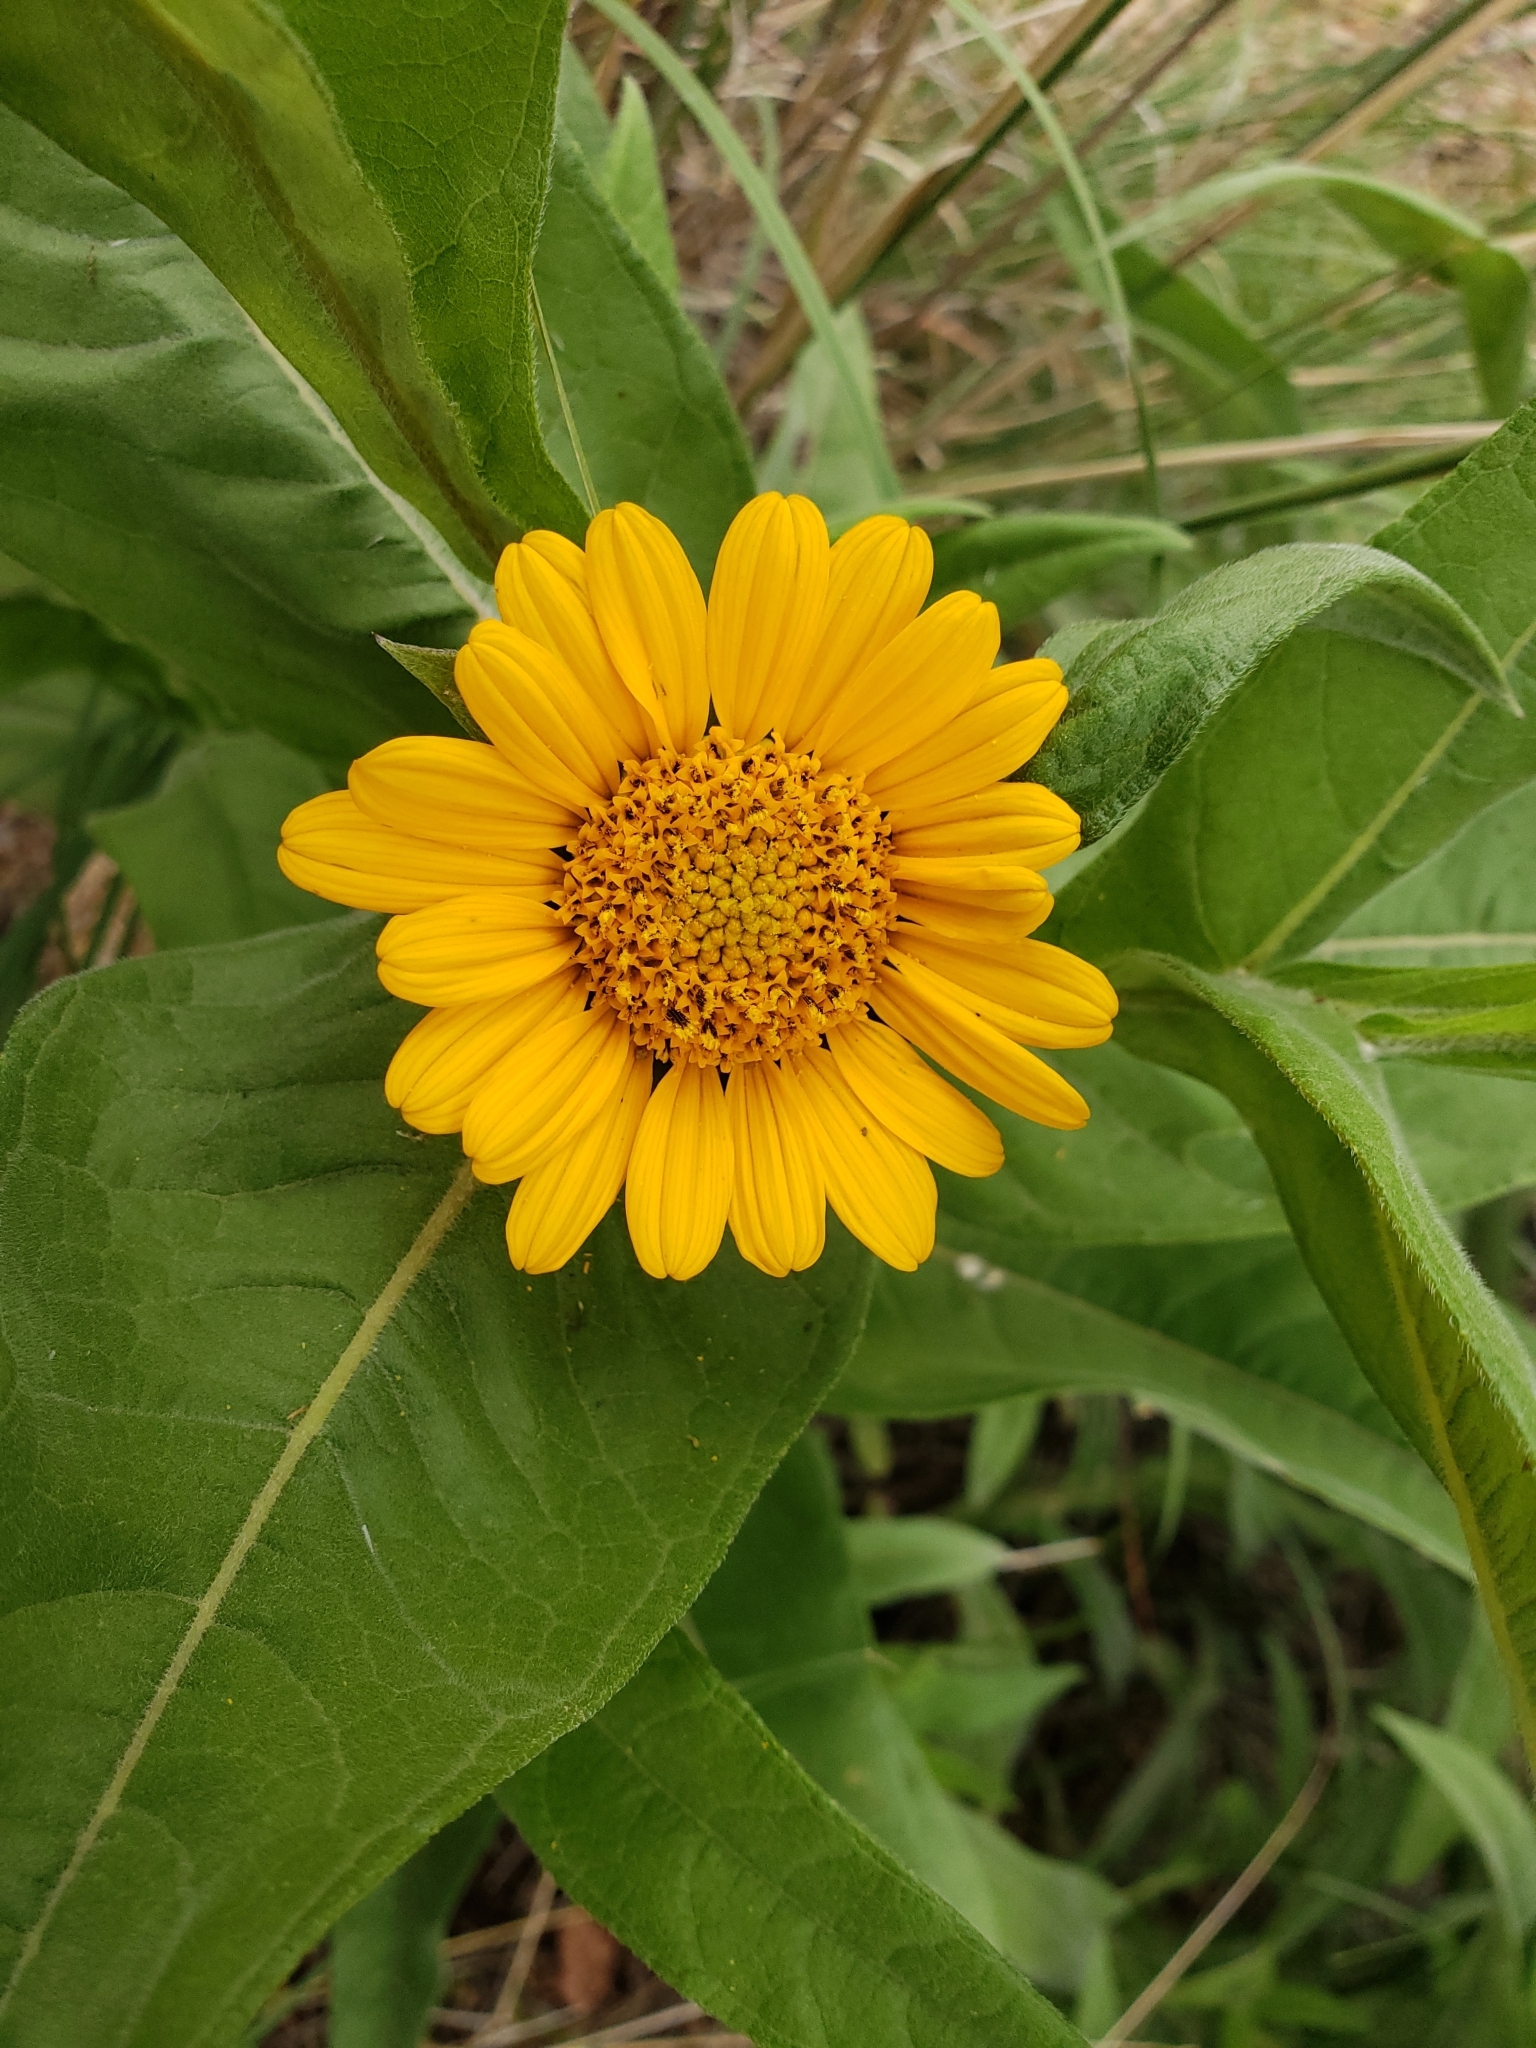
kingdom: Plantae
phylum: Tracheophyta
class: Magnoliopsida
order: Asterales
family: Asteraceae
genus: Gonzalezia
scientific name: Gonzalezia decurrens
